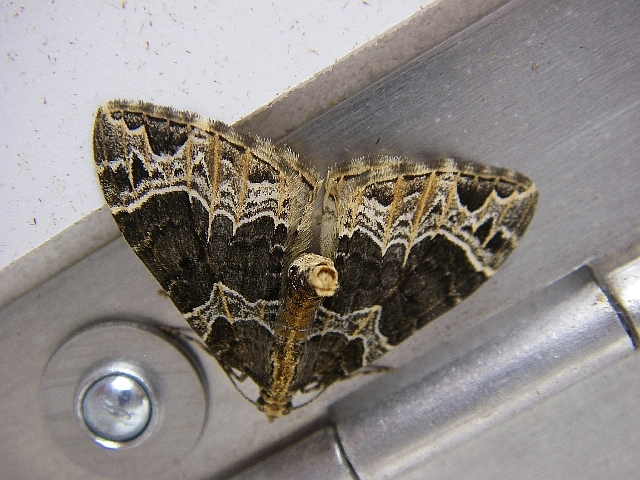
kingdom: Animalia
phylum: Arthropoda
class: Insecta
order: Lepidoptera
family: Geometridae
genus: Ecliptopera
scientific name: Ecliptopera silaceata
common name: Small phoenix
